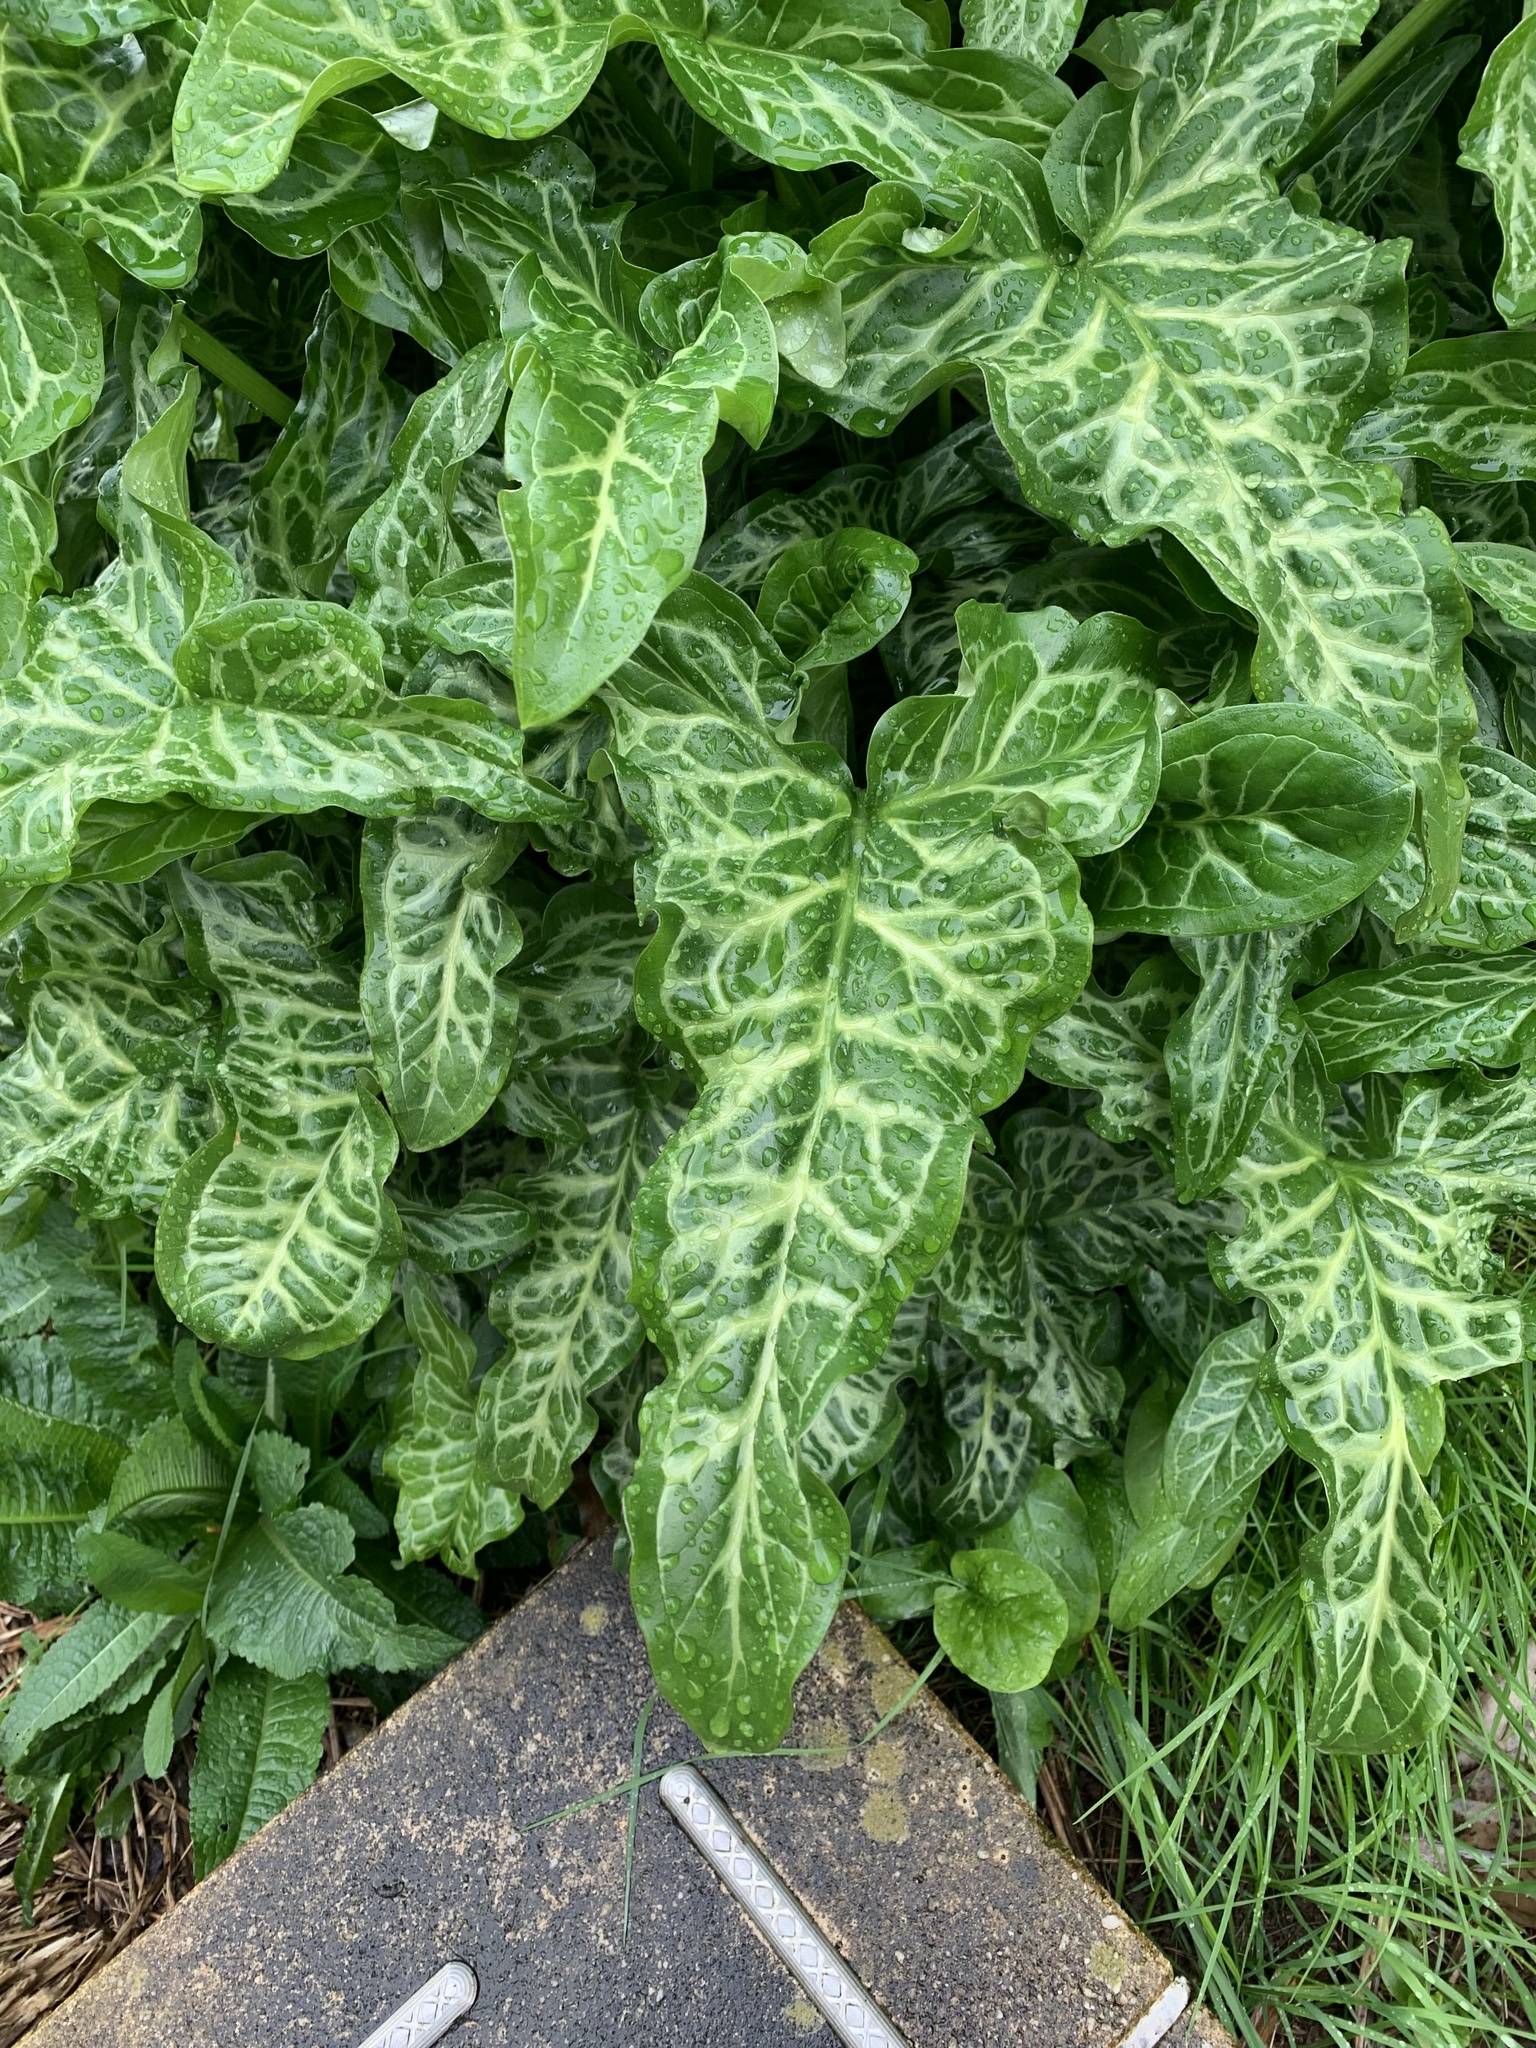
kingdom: Plantae
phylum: Tracheophyta
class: Liliopsida
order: Alismatales
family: Araceae
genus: Arum
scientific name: Arum italicum
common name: Italian lords-and-ladies
